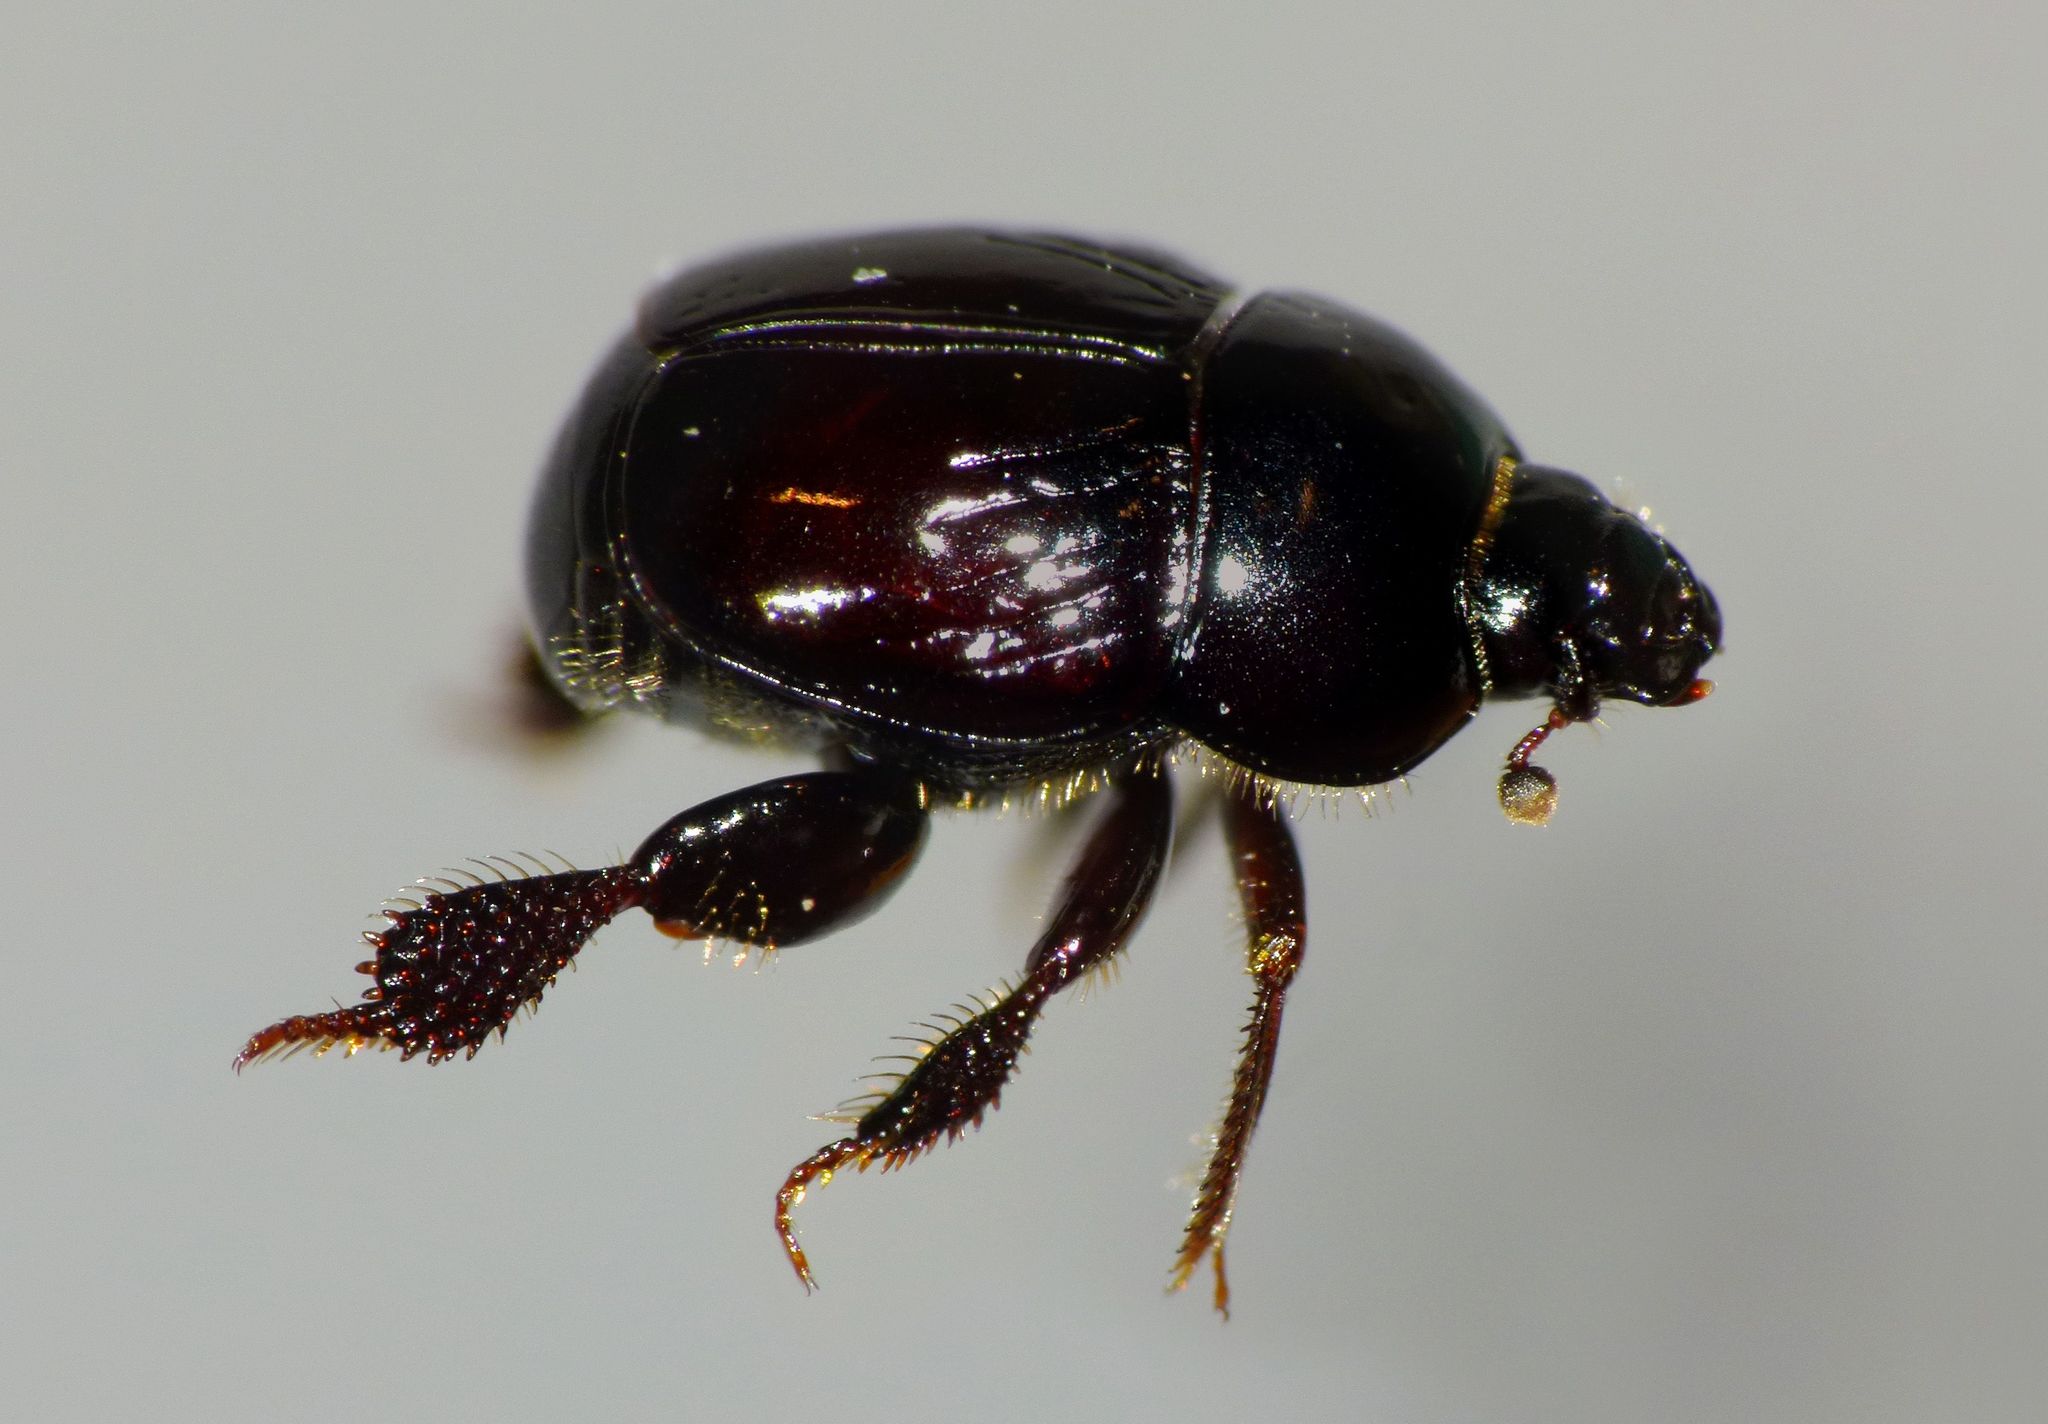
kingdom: Animalia
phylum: Arthropoda
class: Insecta
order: Coleoptera
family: Histeridae
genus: Saprinus
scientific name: Saprinus pedator
